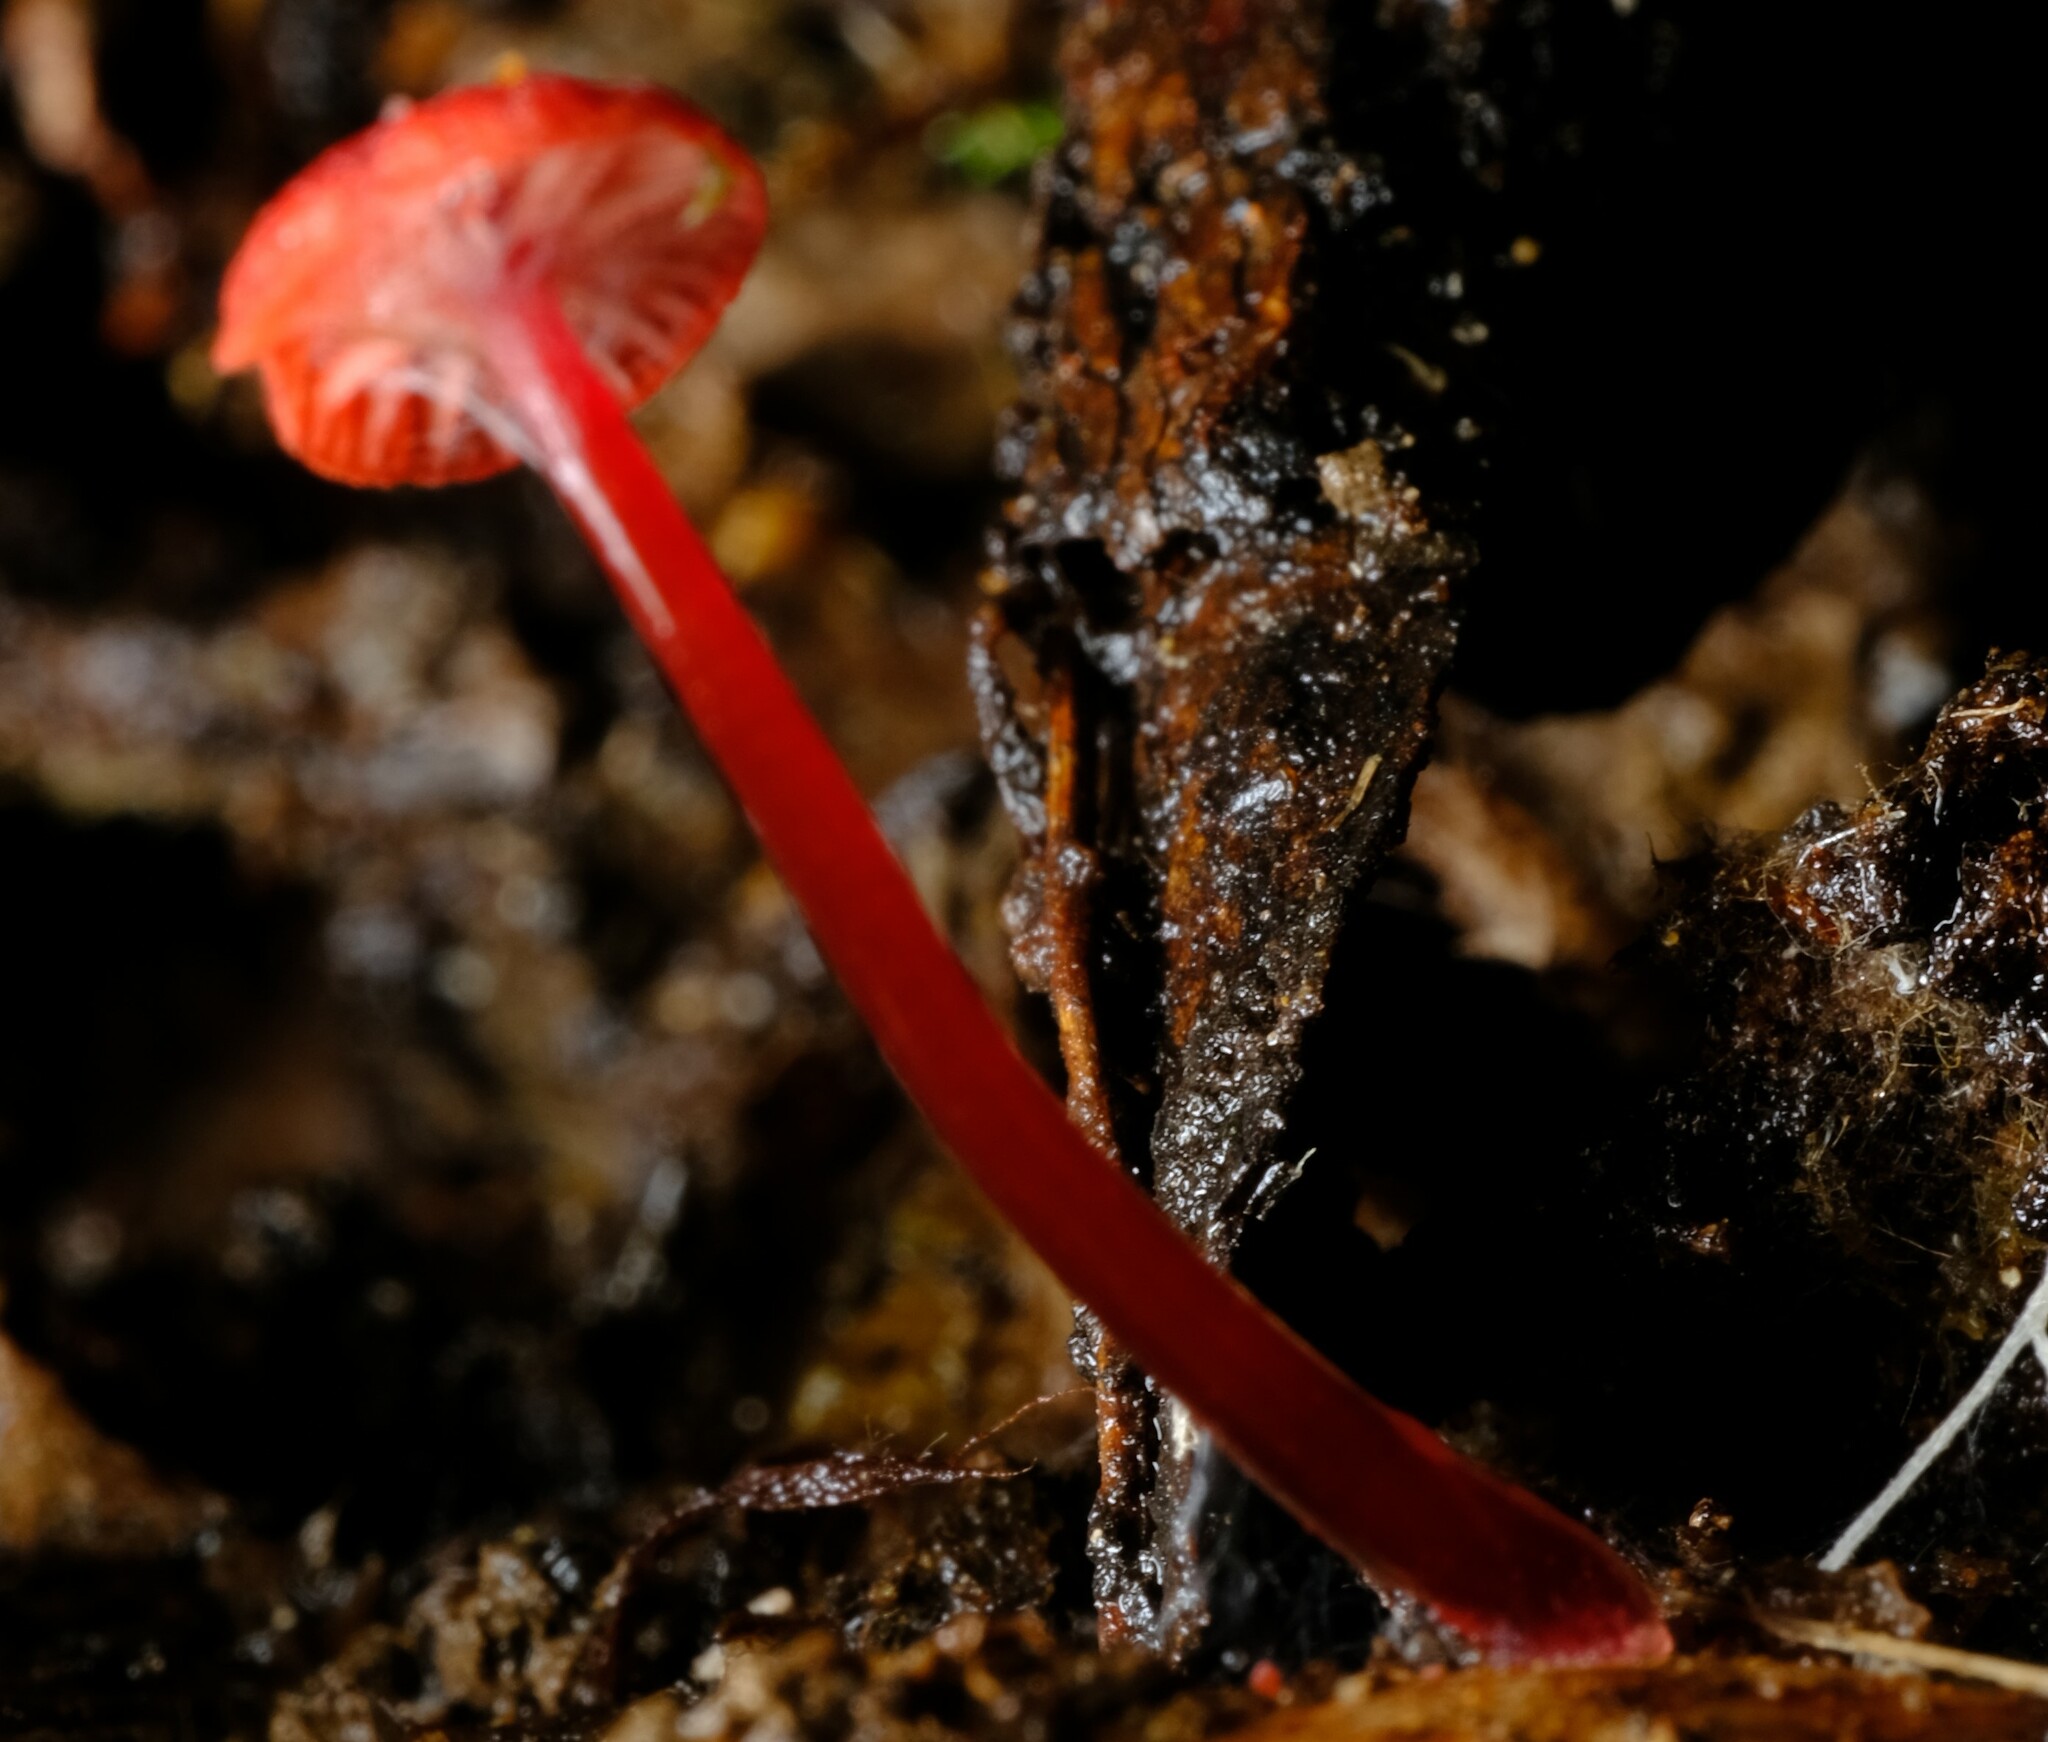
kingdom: Fungi
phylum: Basidiomycota
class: Agaricomycetes
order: Agaricales
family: Mycenaceae
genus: Cruentomycena
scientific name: Cruentomycena viscidocruenta
